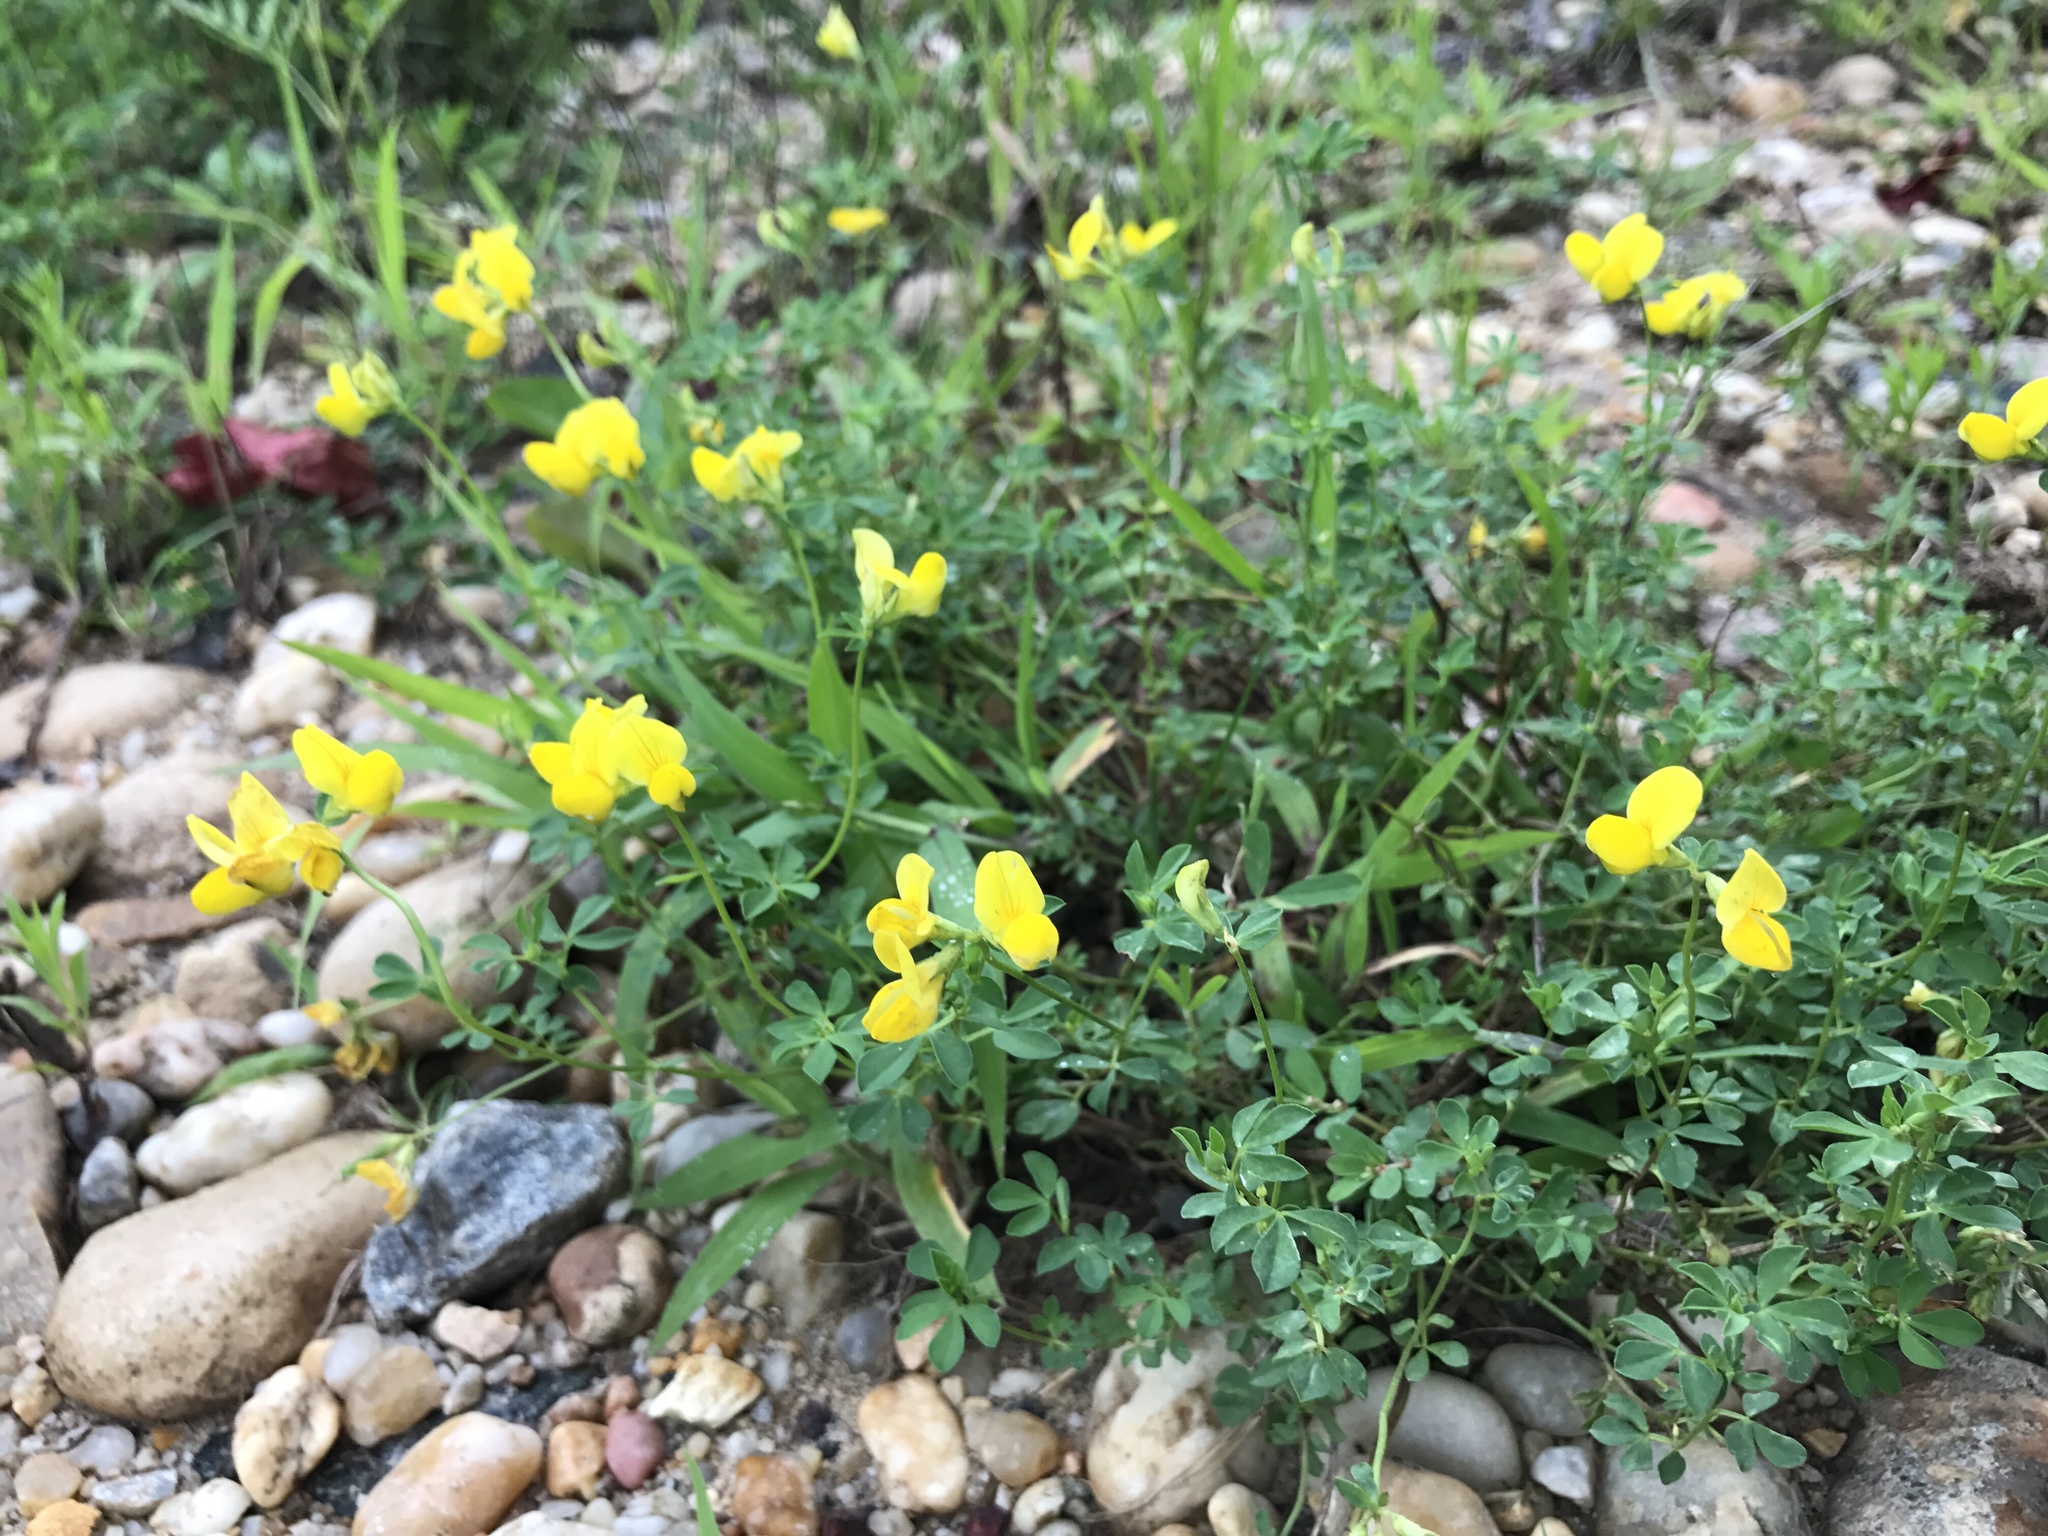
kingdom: Plantae
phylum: Tracheophyta
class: Magnoliopsida
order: Fabales
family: Fabaceae
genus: Lotus
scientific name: Lotus corniculatus
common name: Common bird's-foot-trefoil
